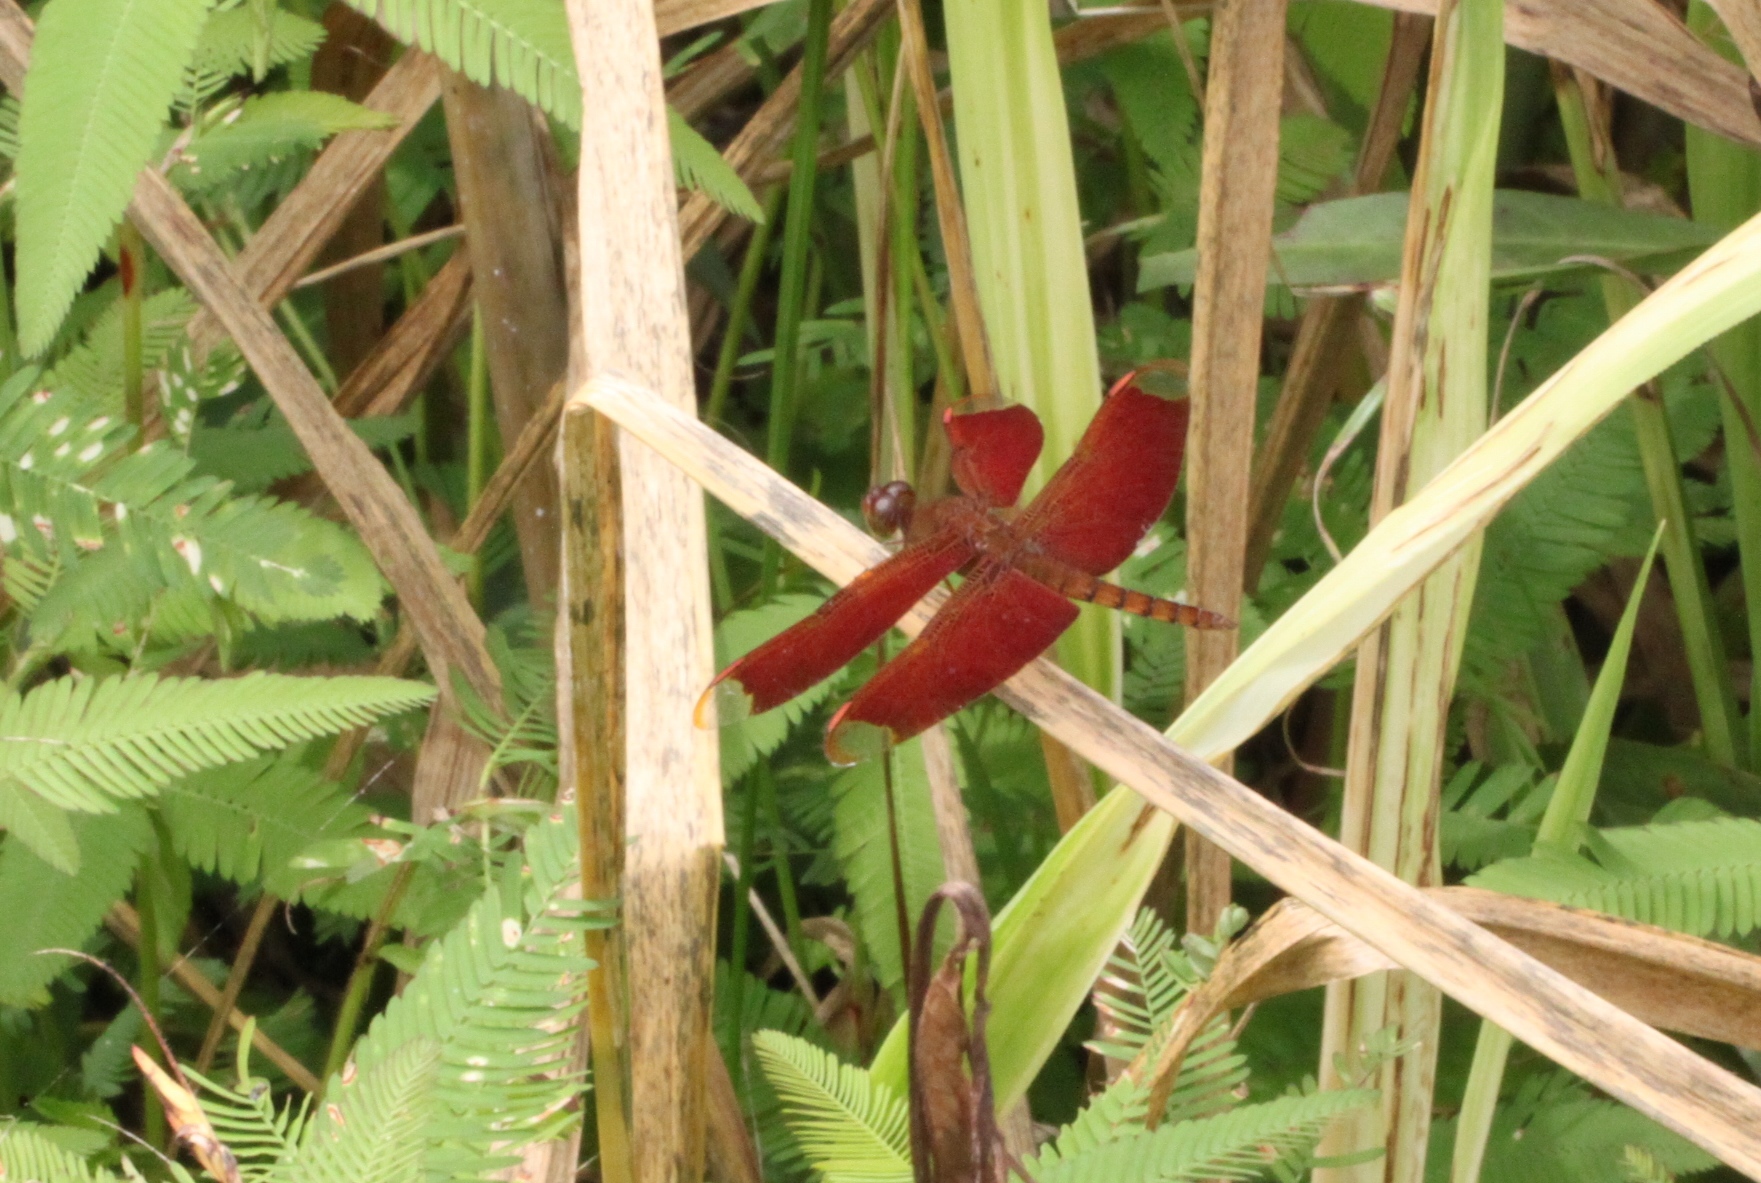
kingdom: Animalia
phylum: Arthropoda
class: Insecta
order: Odonata
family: Libellulidae
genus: Neurothemis
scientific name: Neurothemis fulvia
